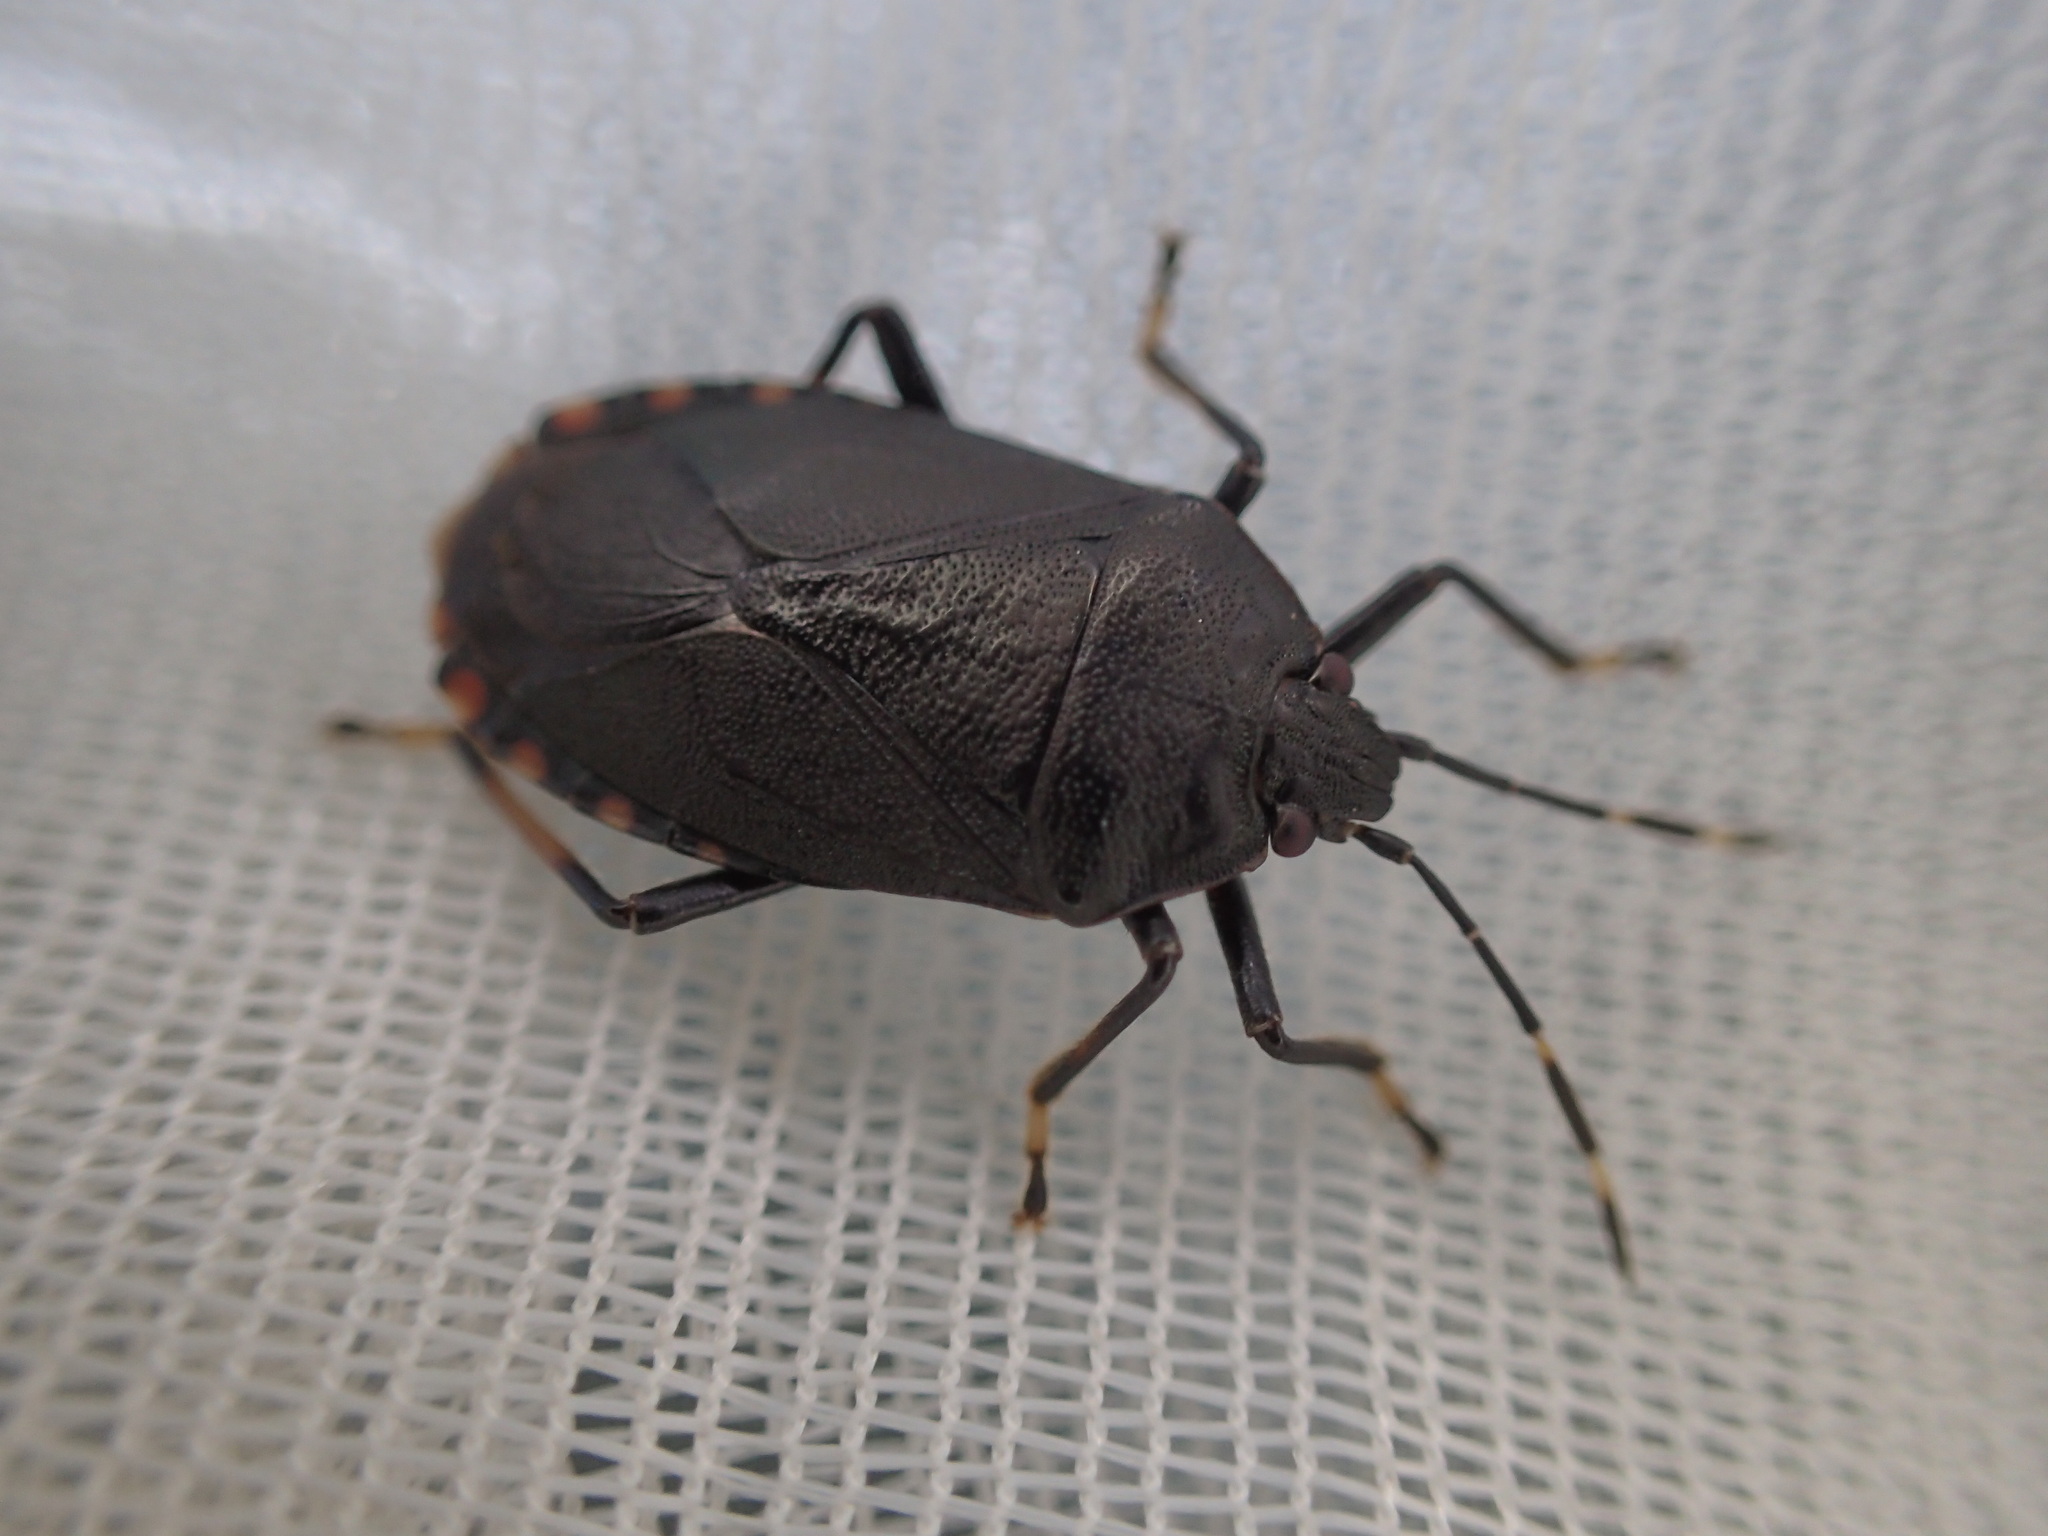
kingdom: Animalia
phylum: Arthropoda
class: Insecta
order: Hemiptera
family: Pentatomidae
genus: Notius
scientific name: Notius
